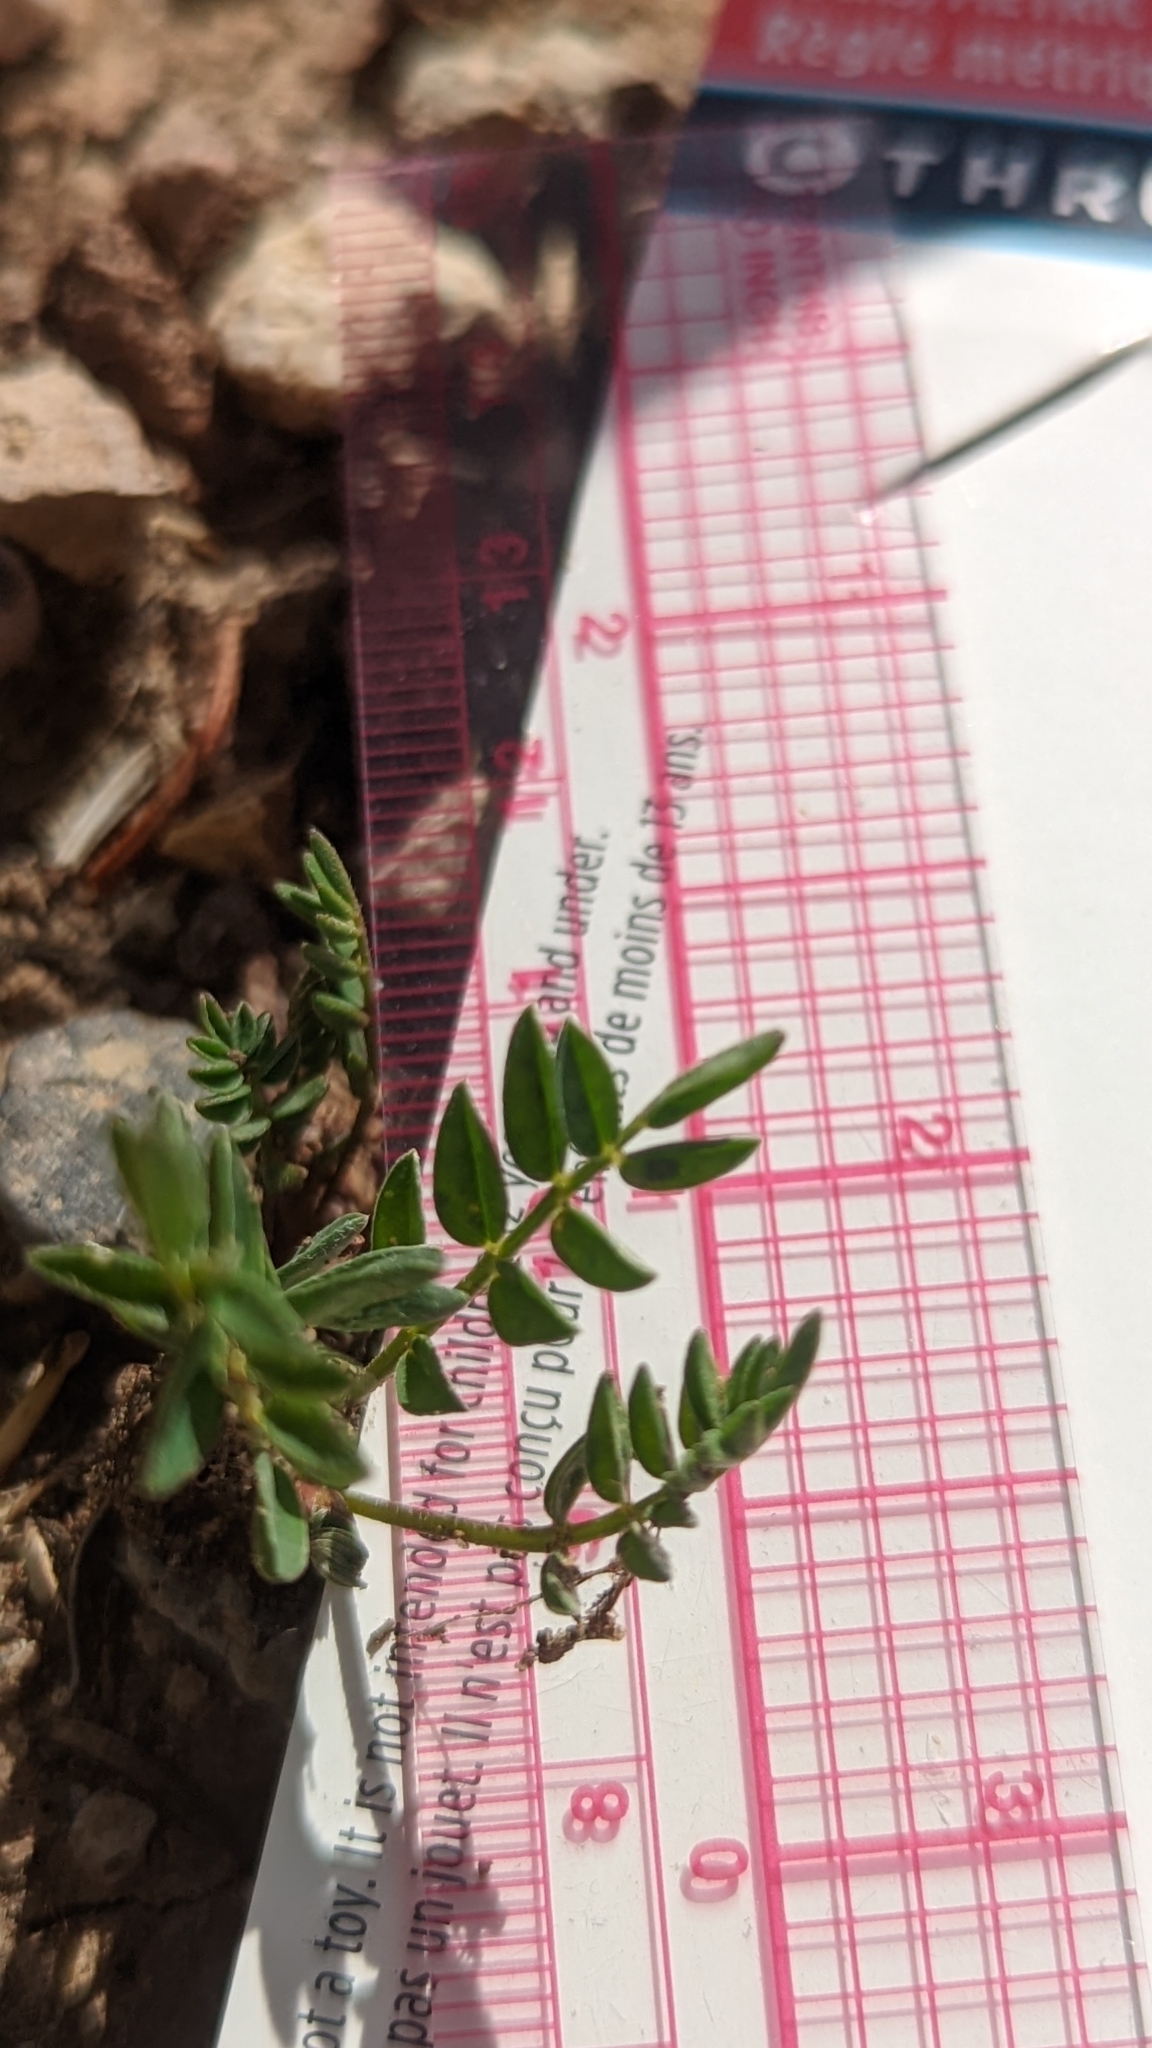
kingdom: Plantae
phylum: Tracheophyta
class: Magnoliopsida
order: Fabales
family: Fabaceae
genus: Astragalus
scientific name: Astragalus miser
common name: Timber milkvetch
